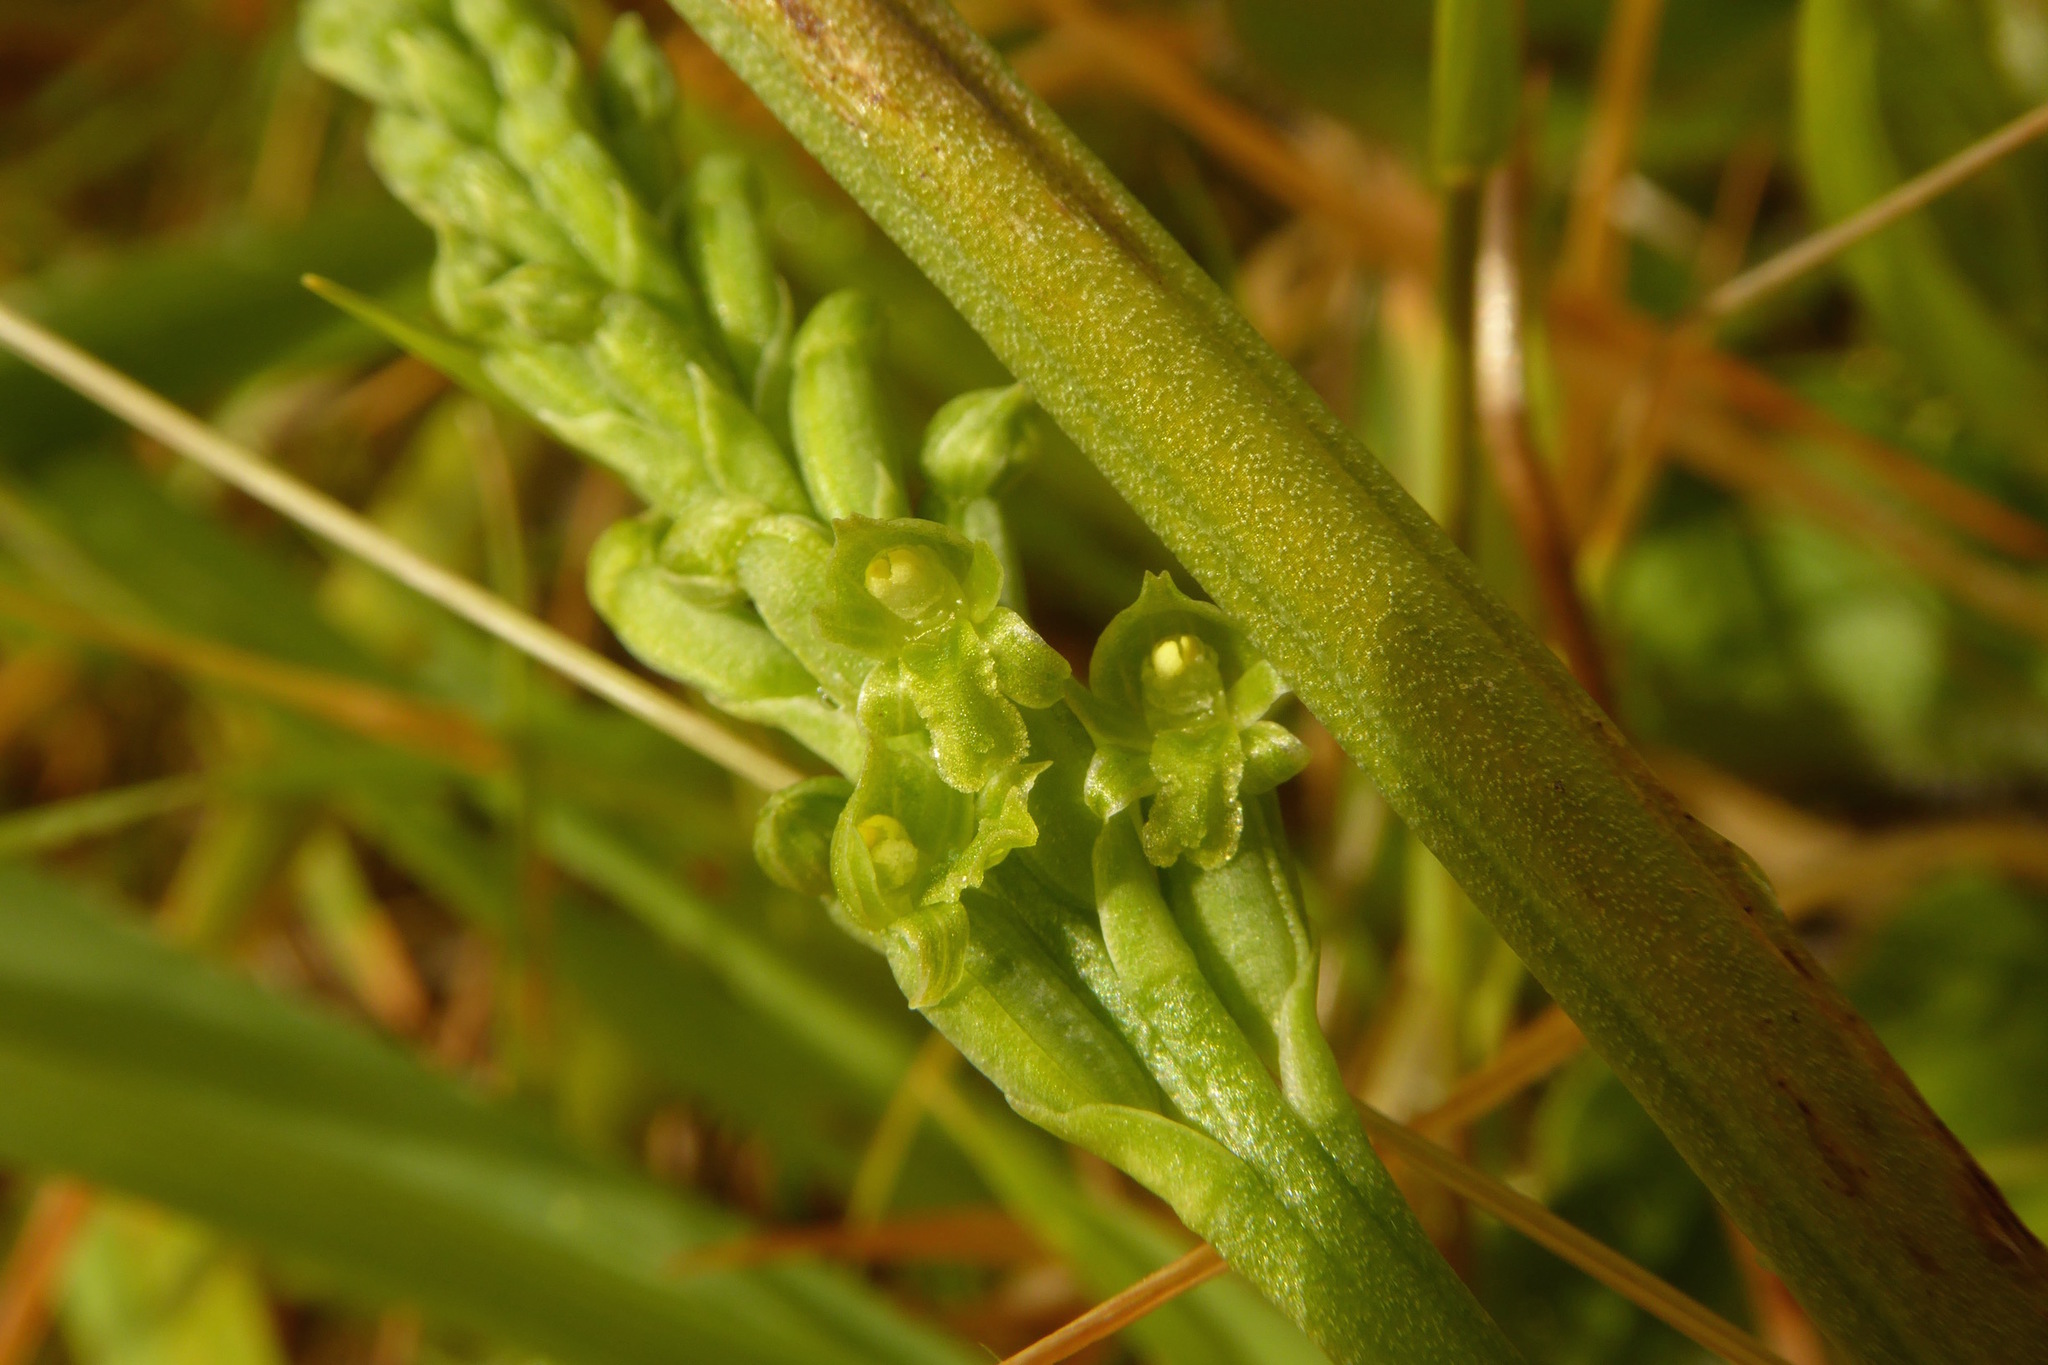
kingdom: Plantae
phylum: Tracheophyta
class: Liliopsida
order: Asparagales
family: Orchidaceae
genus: Microtis
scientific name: Microtis unifolia
